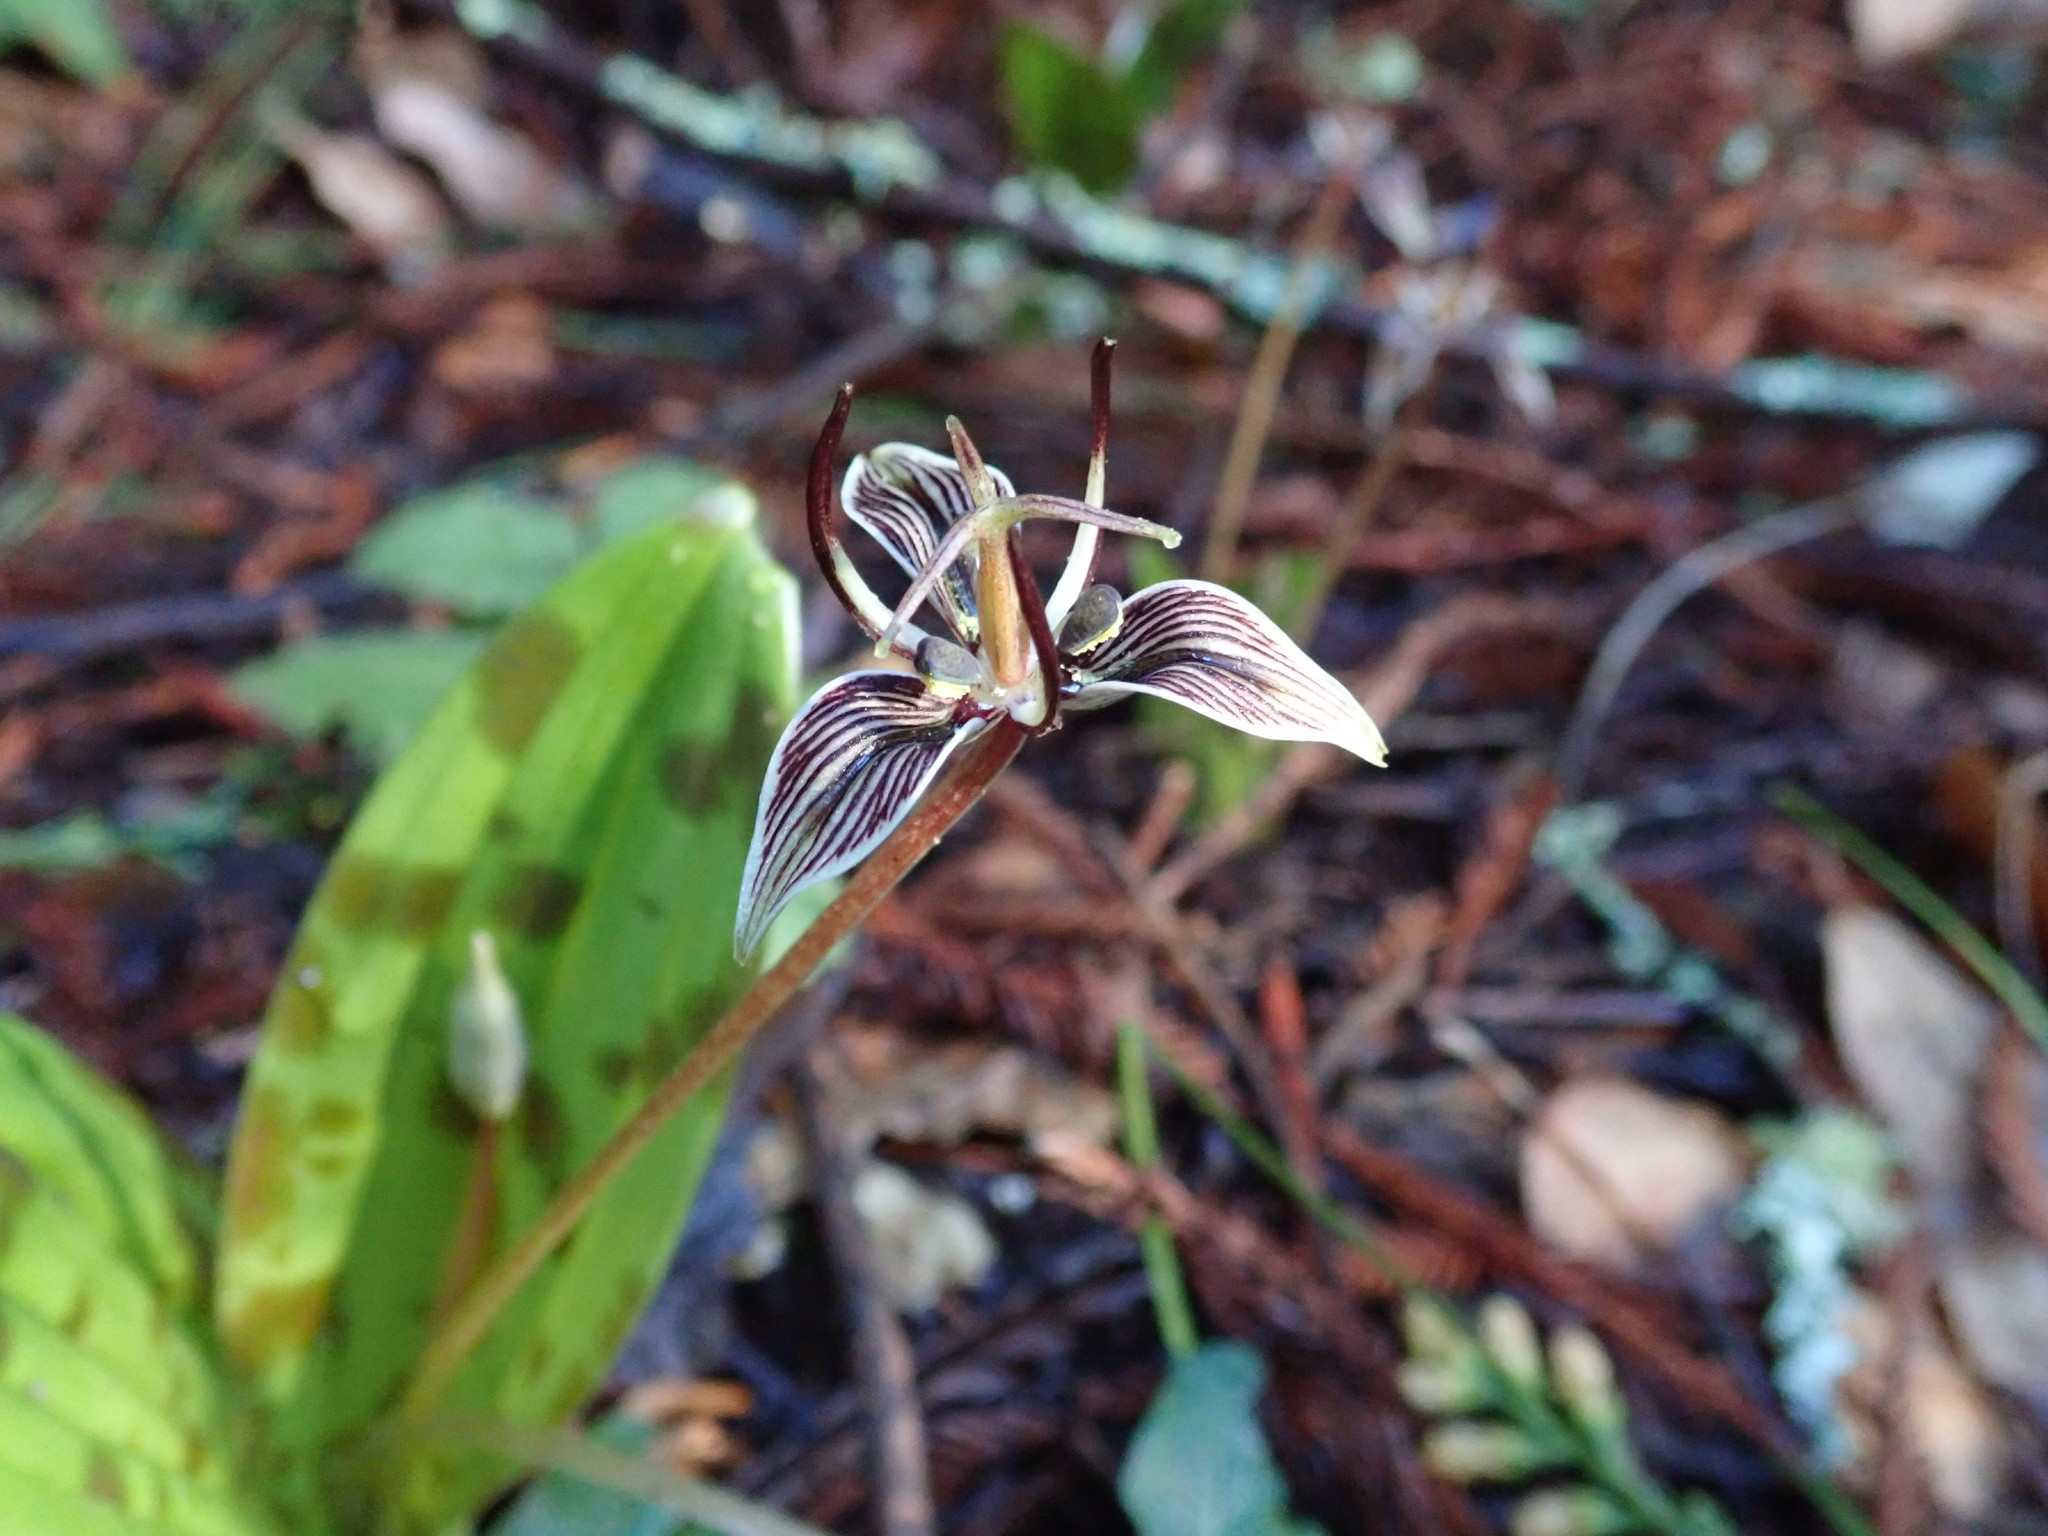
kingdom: Plantae
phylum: Tracheophyta
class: Liliopsida
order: Liliales
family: Liliaceae
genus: Scoliopus
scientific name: Scoliopus bigelovii
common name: Foetid adder's-tongue
